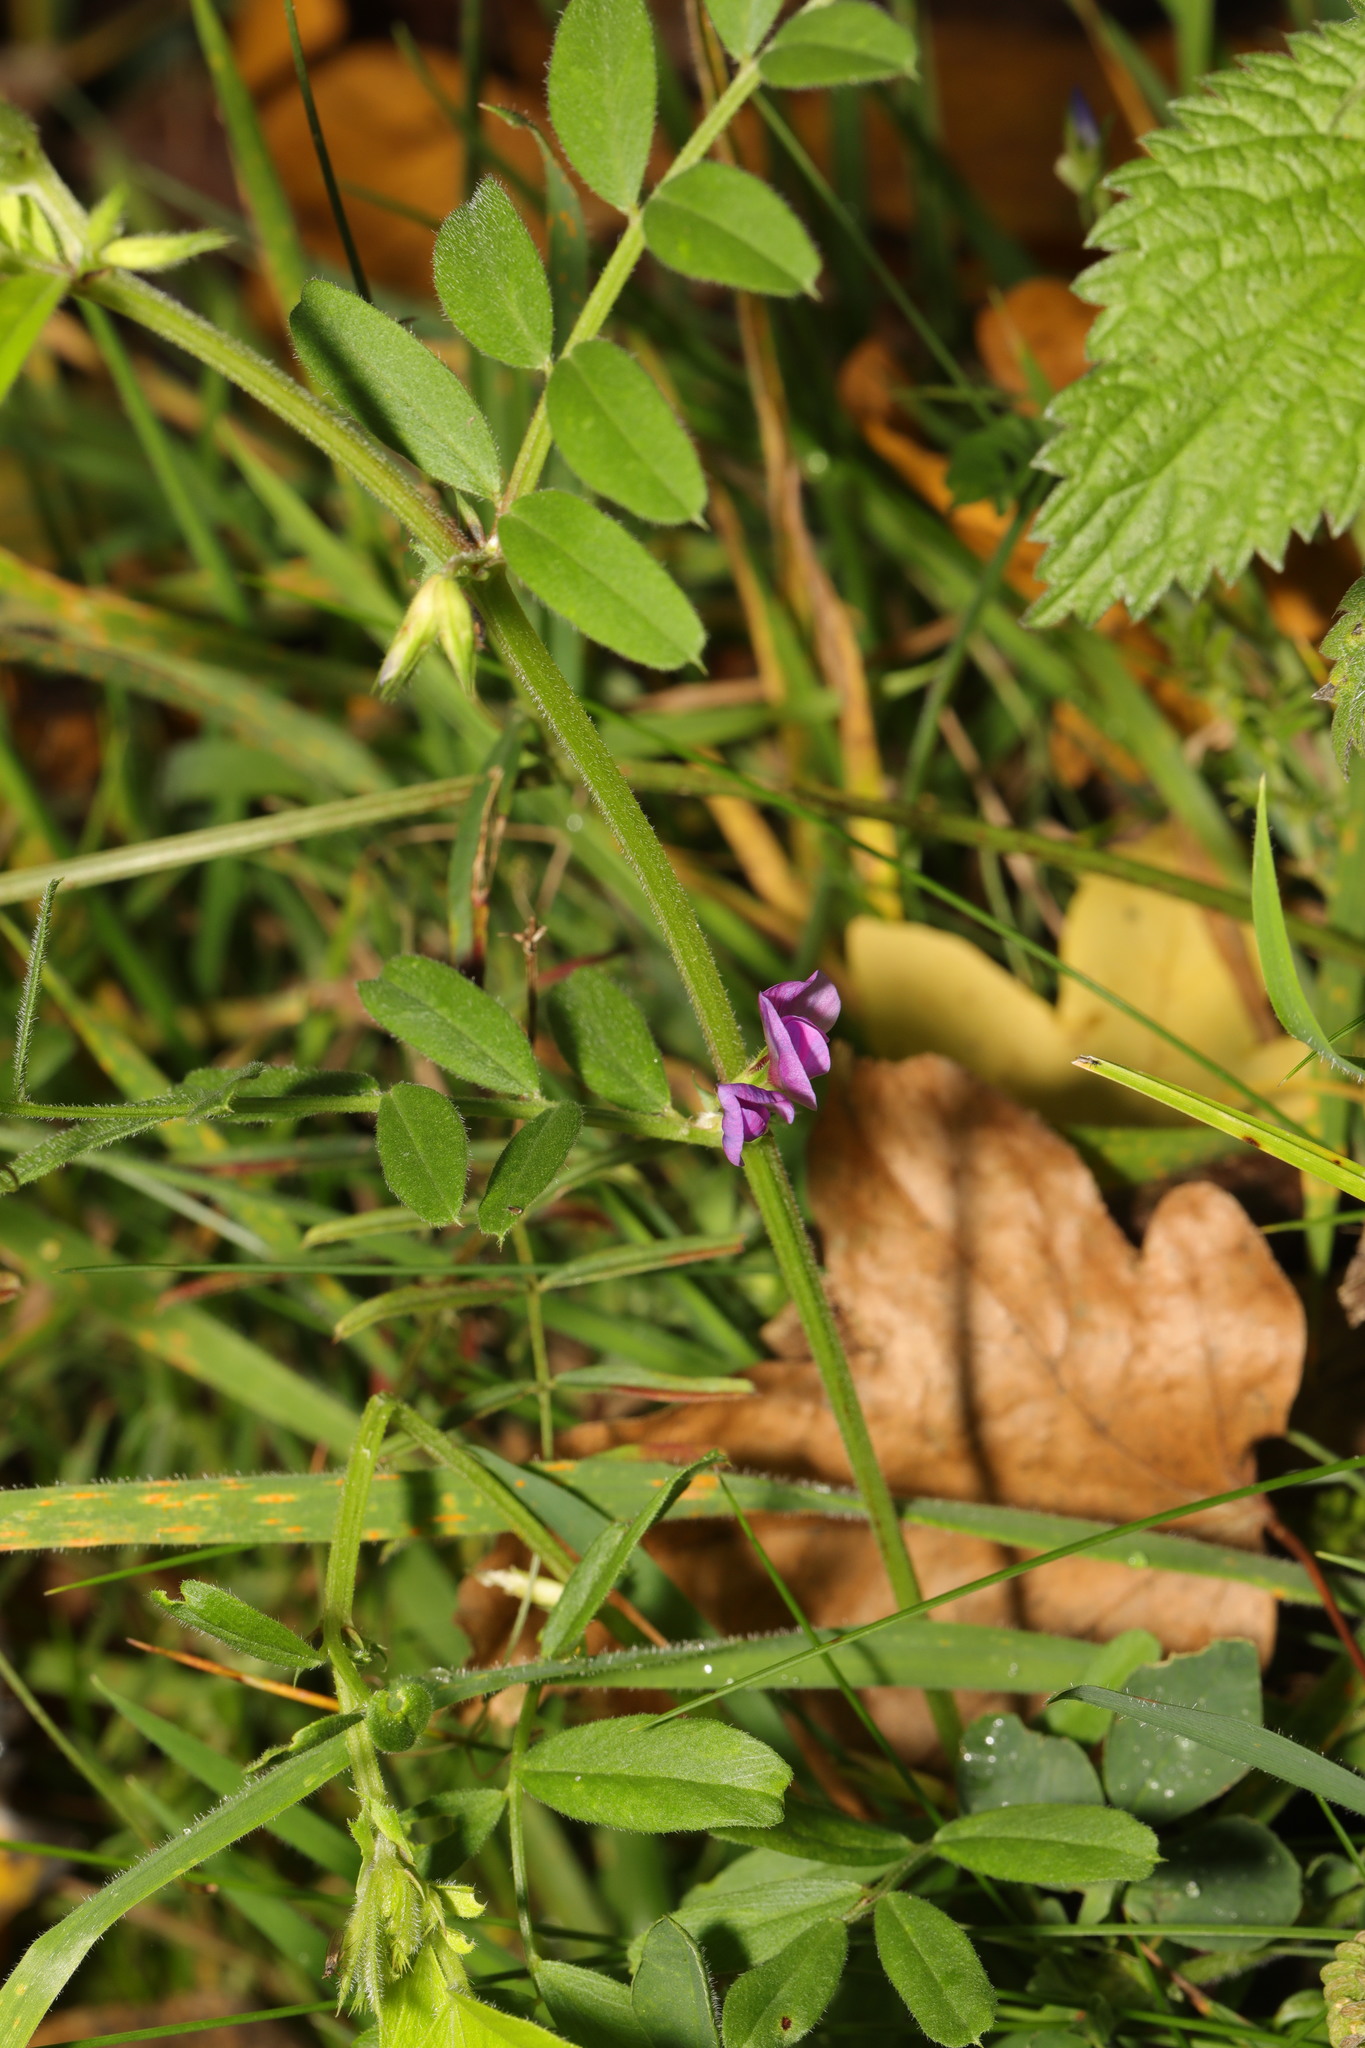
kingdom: Plantae
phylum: Tracheophyta
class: Magnoliopsida
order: Fabales
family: Fabaceae
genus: Vicia
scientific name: Vicia sativa
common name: Garden vetch
